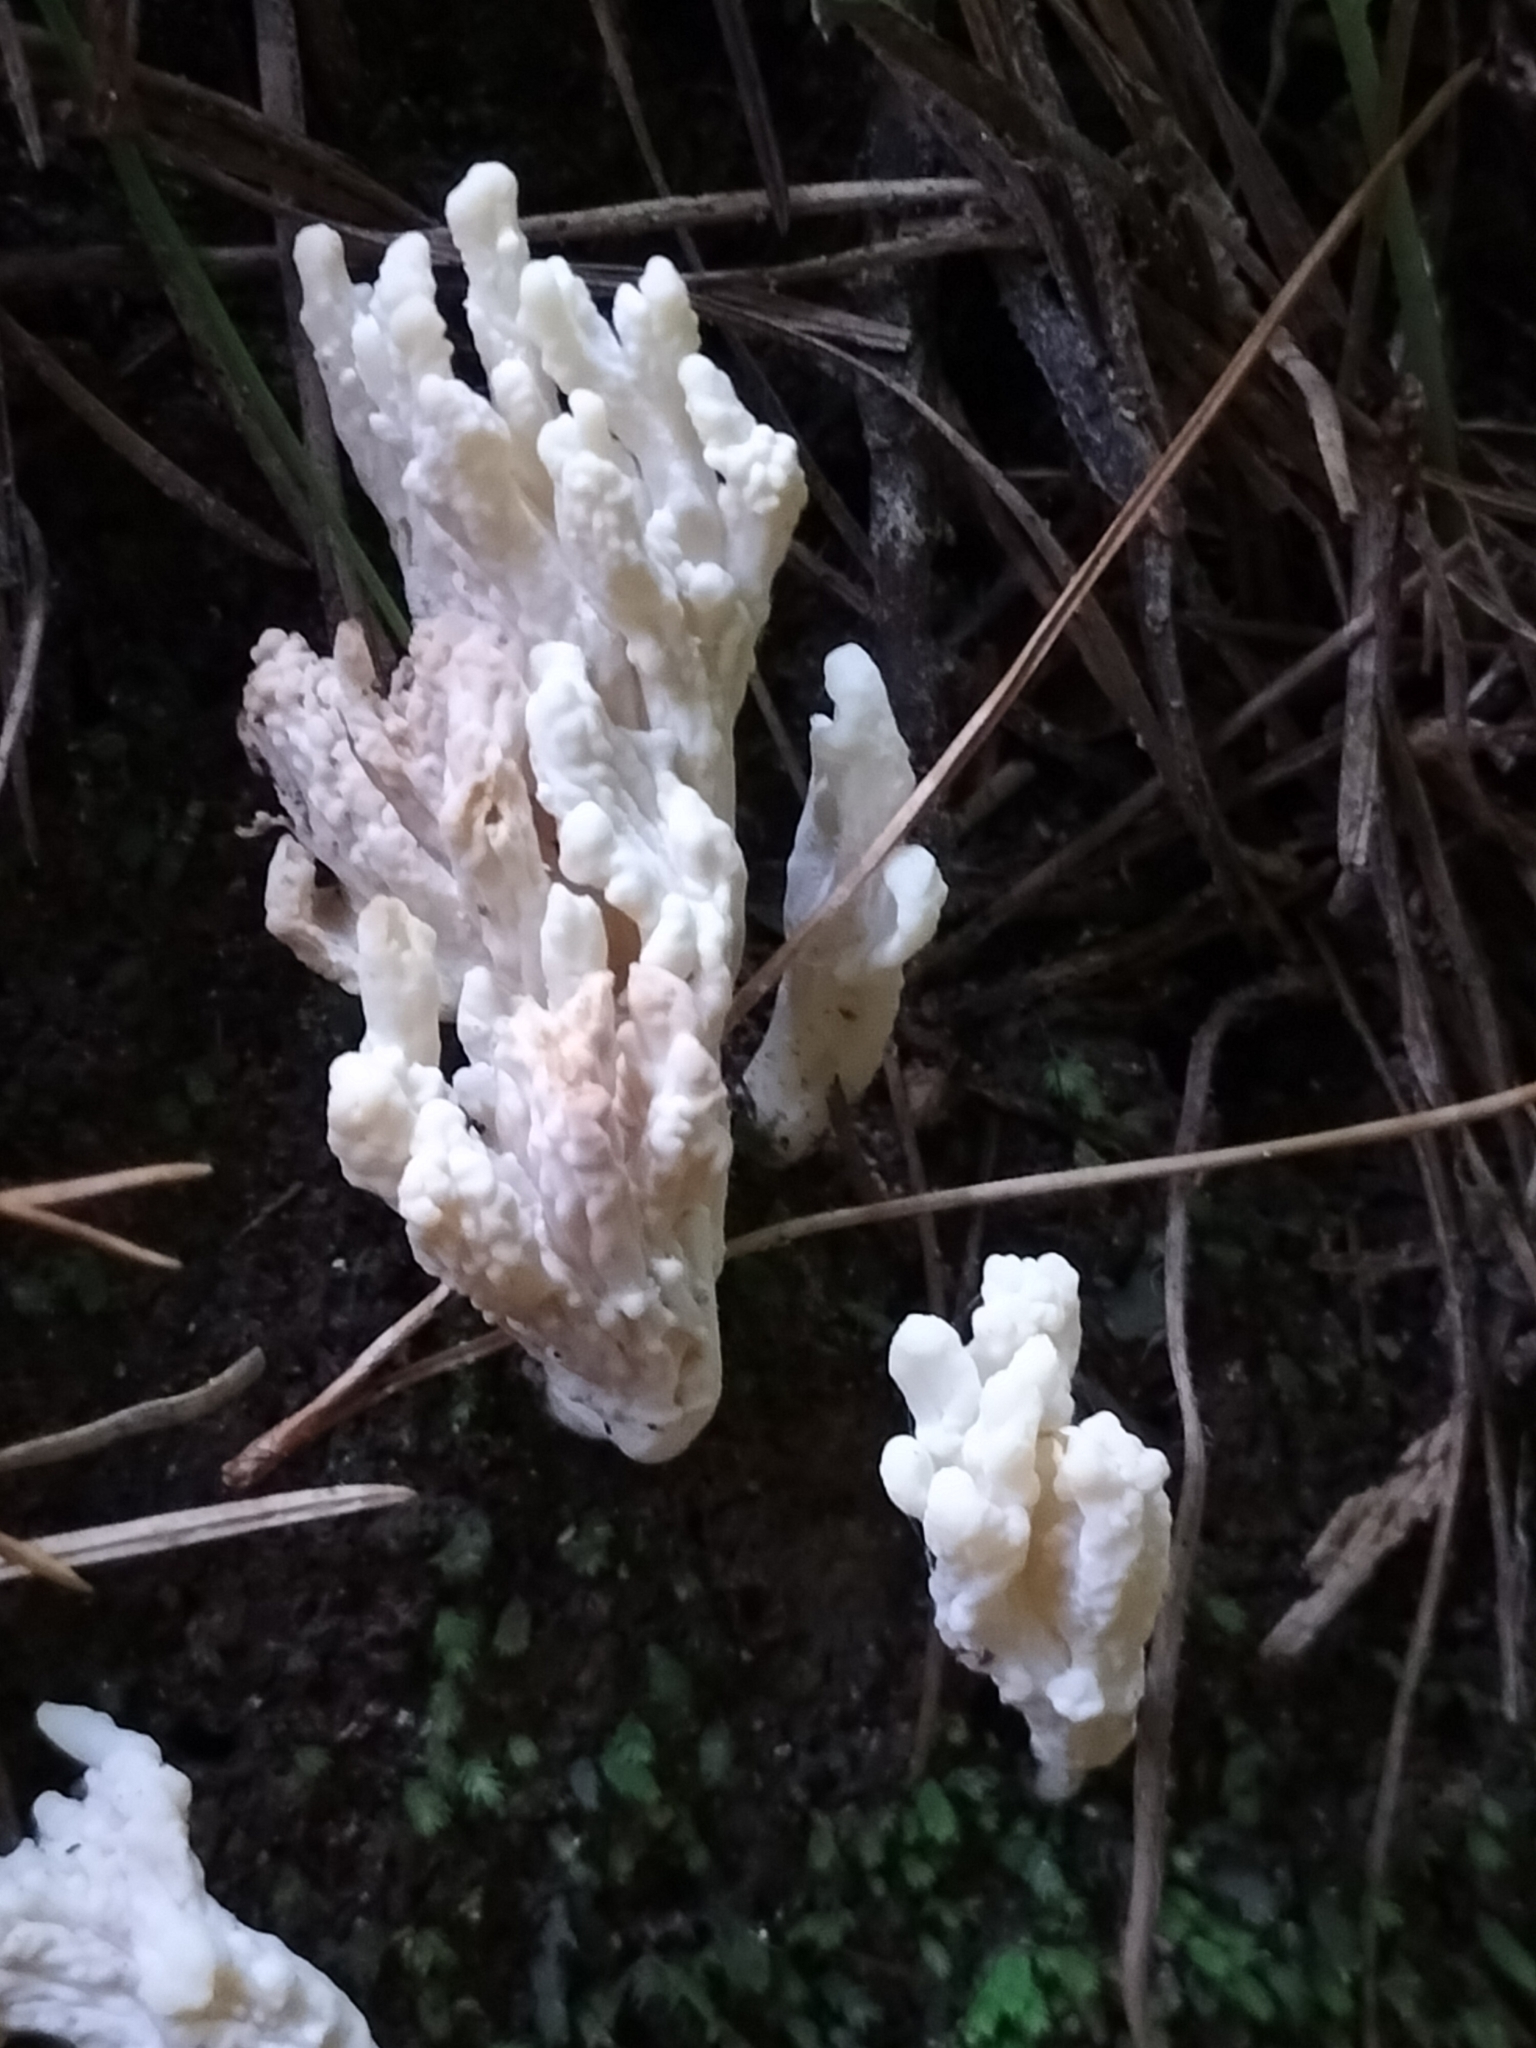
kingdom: Fungi
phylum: Basidiomycota
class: Agaricomycetes
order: Cantharellales
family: Hydnaceae
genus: Clavulina
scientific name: Clavulina rugosa
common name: Wrinkled club
